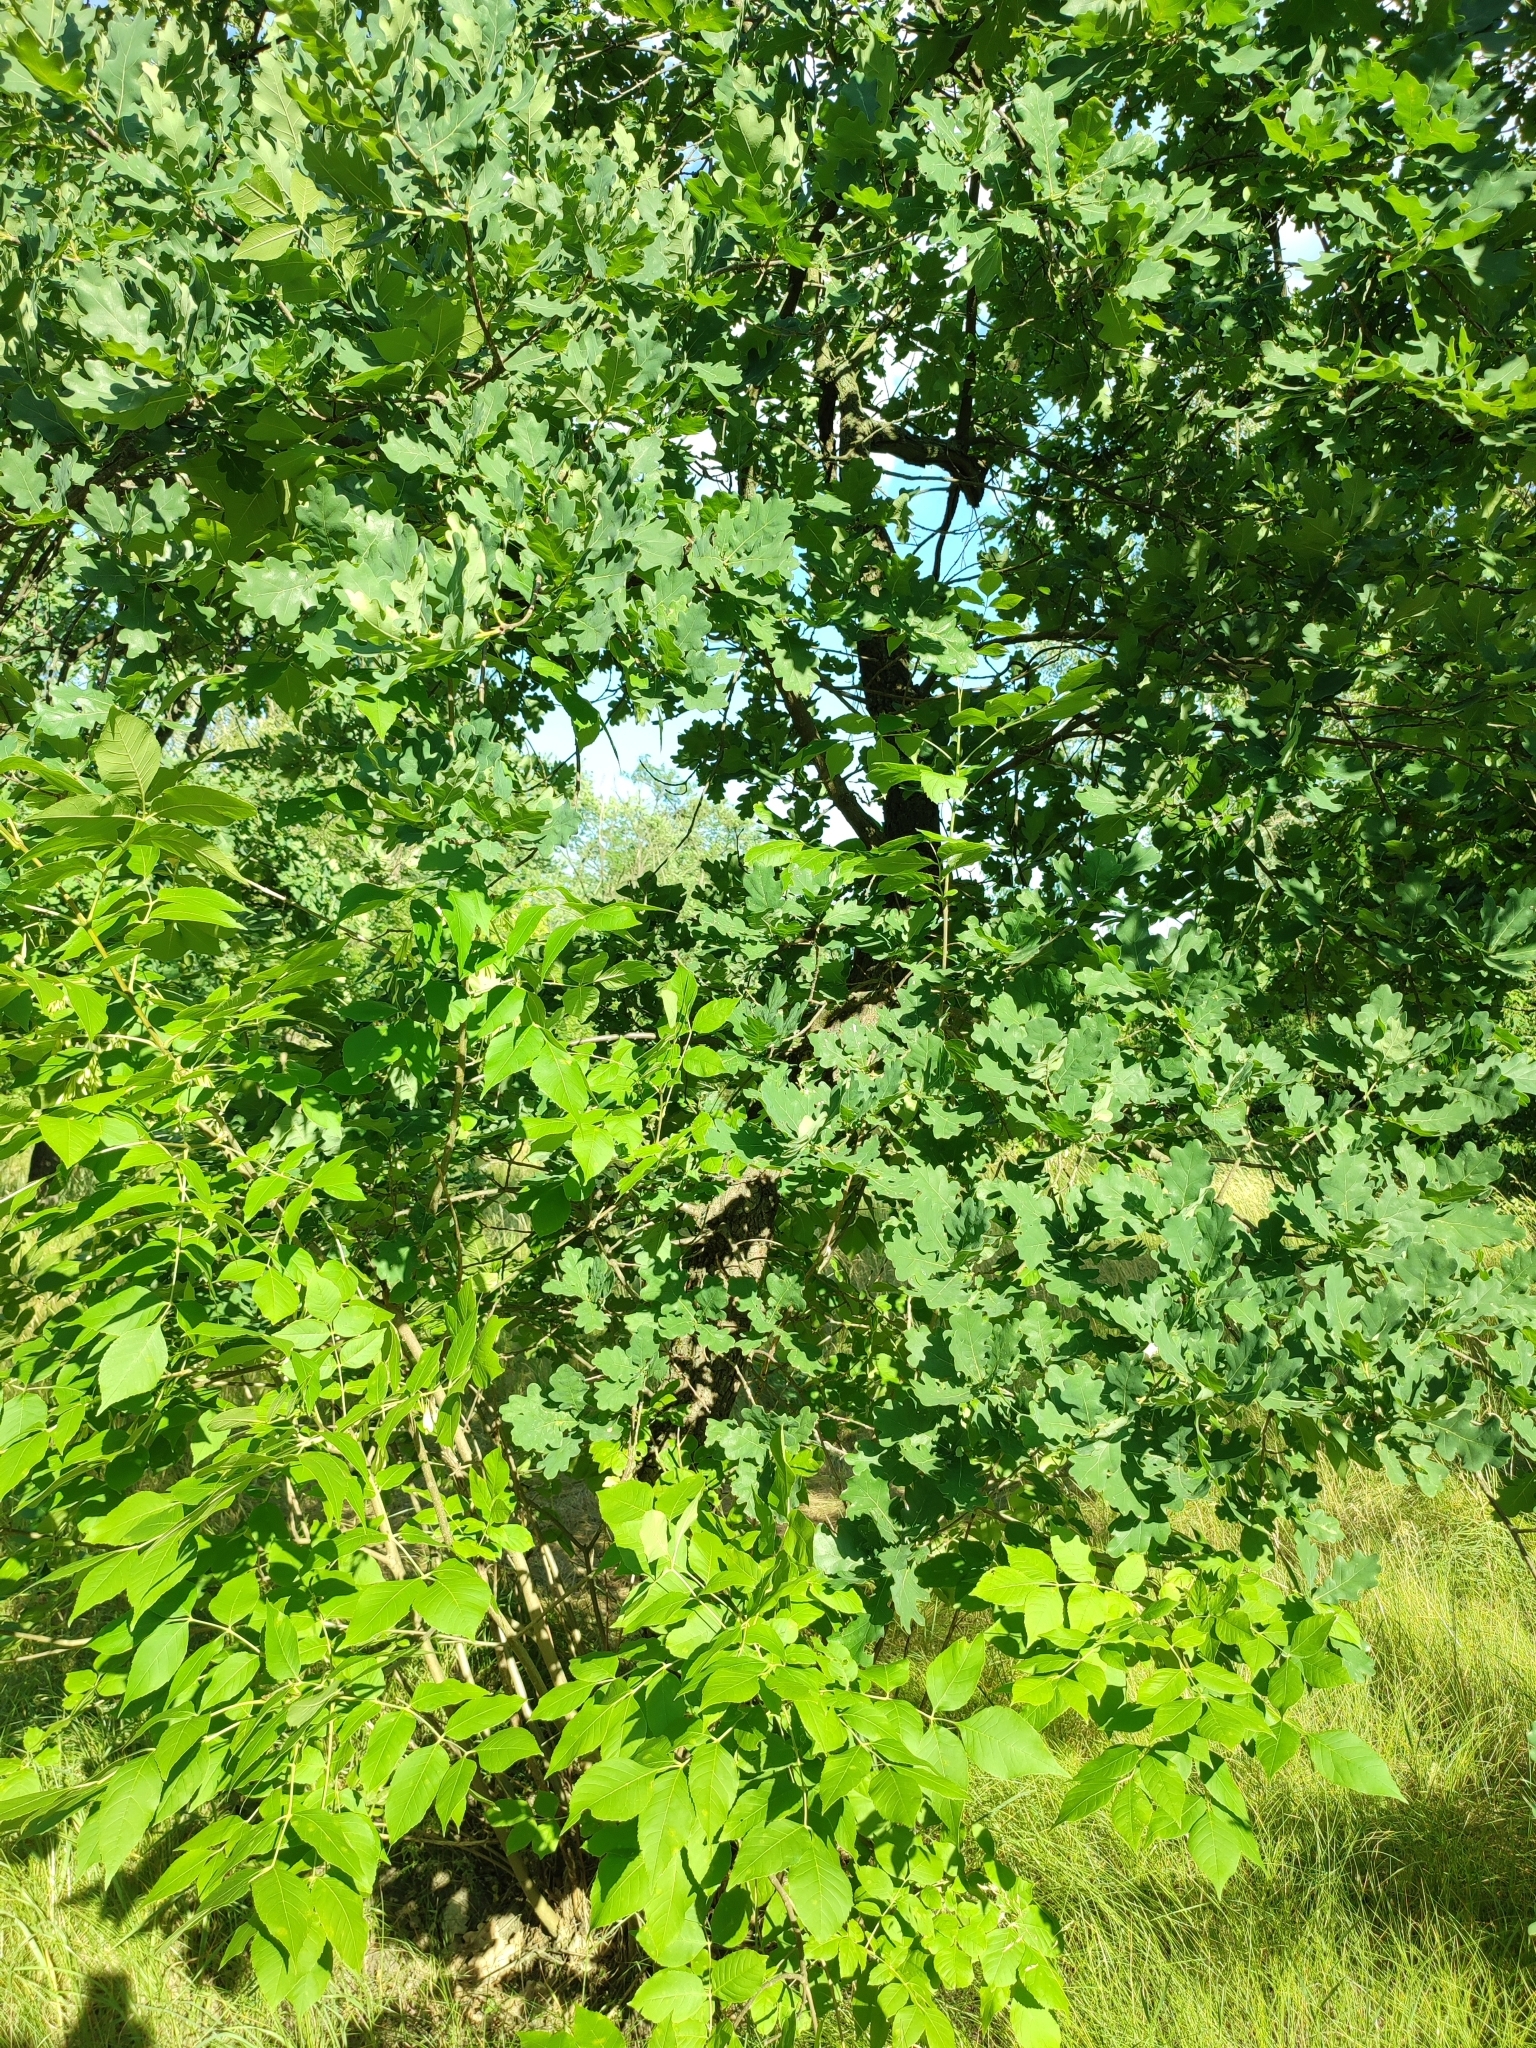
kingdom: Plantae
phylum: Tracheophyta
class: Magnoliopsida
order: Fagales
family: Fagaceae
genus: Quercus
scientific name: Quercus robur
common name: Pedunculate oak
